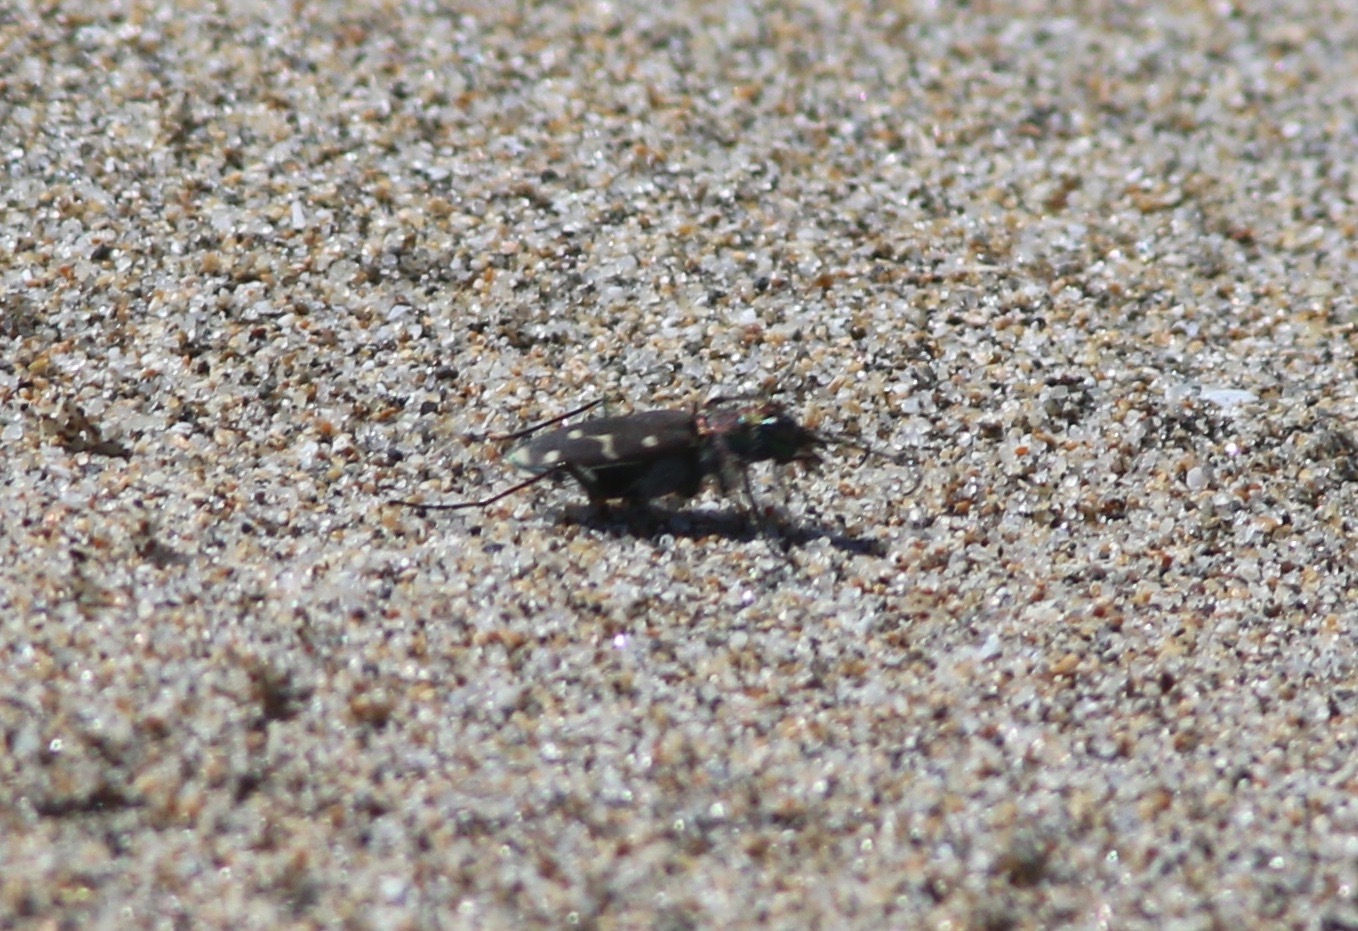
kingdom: Animalia
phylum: Arthropoda
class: Insecta
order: Coleoptera
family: Carabidae
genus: Cicindela
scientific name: Cicindela oregona
